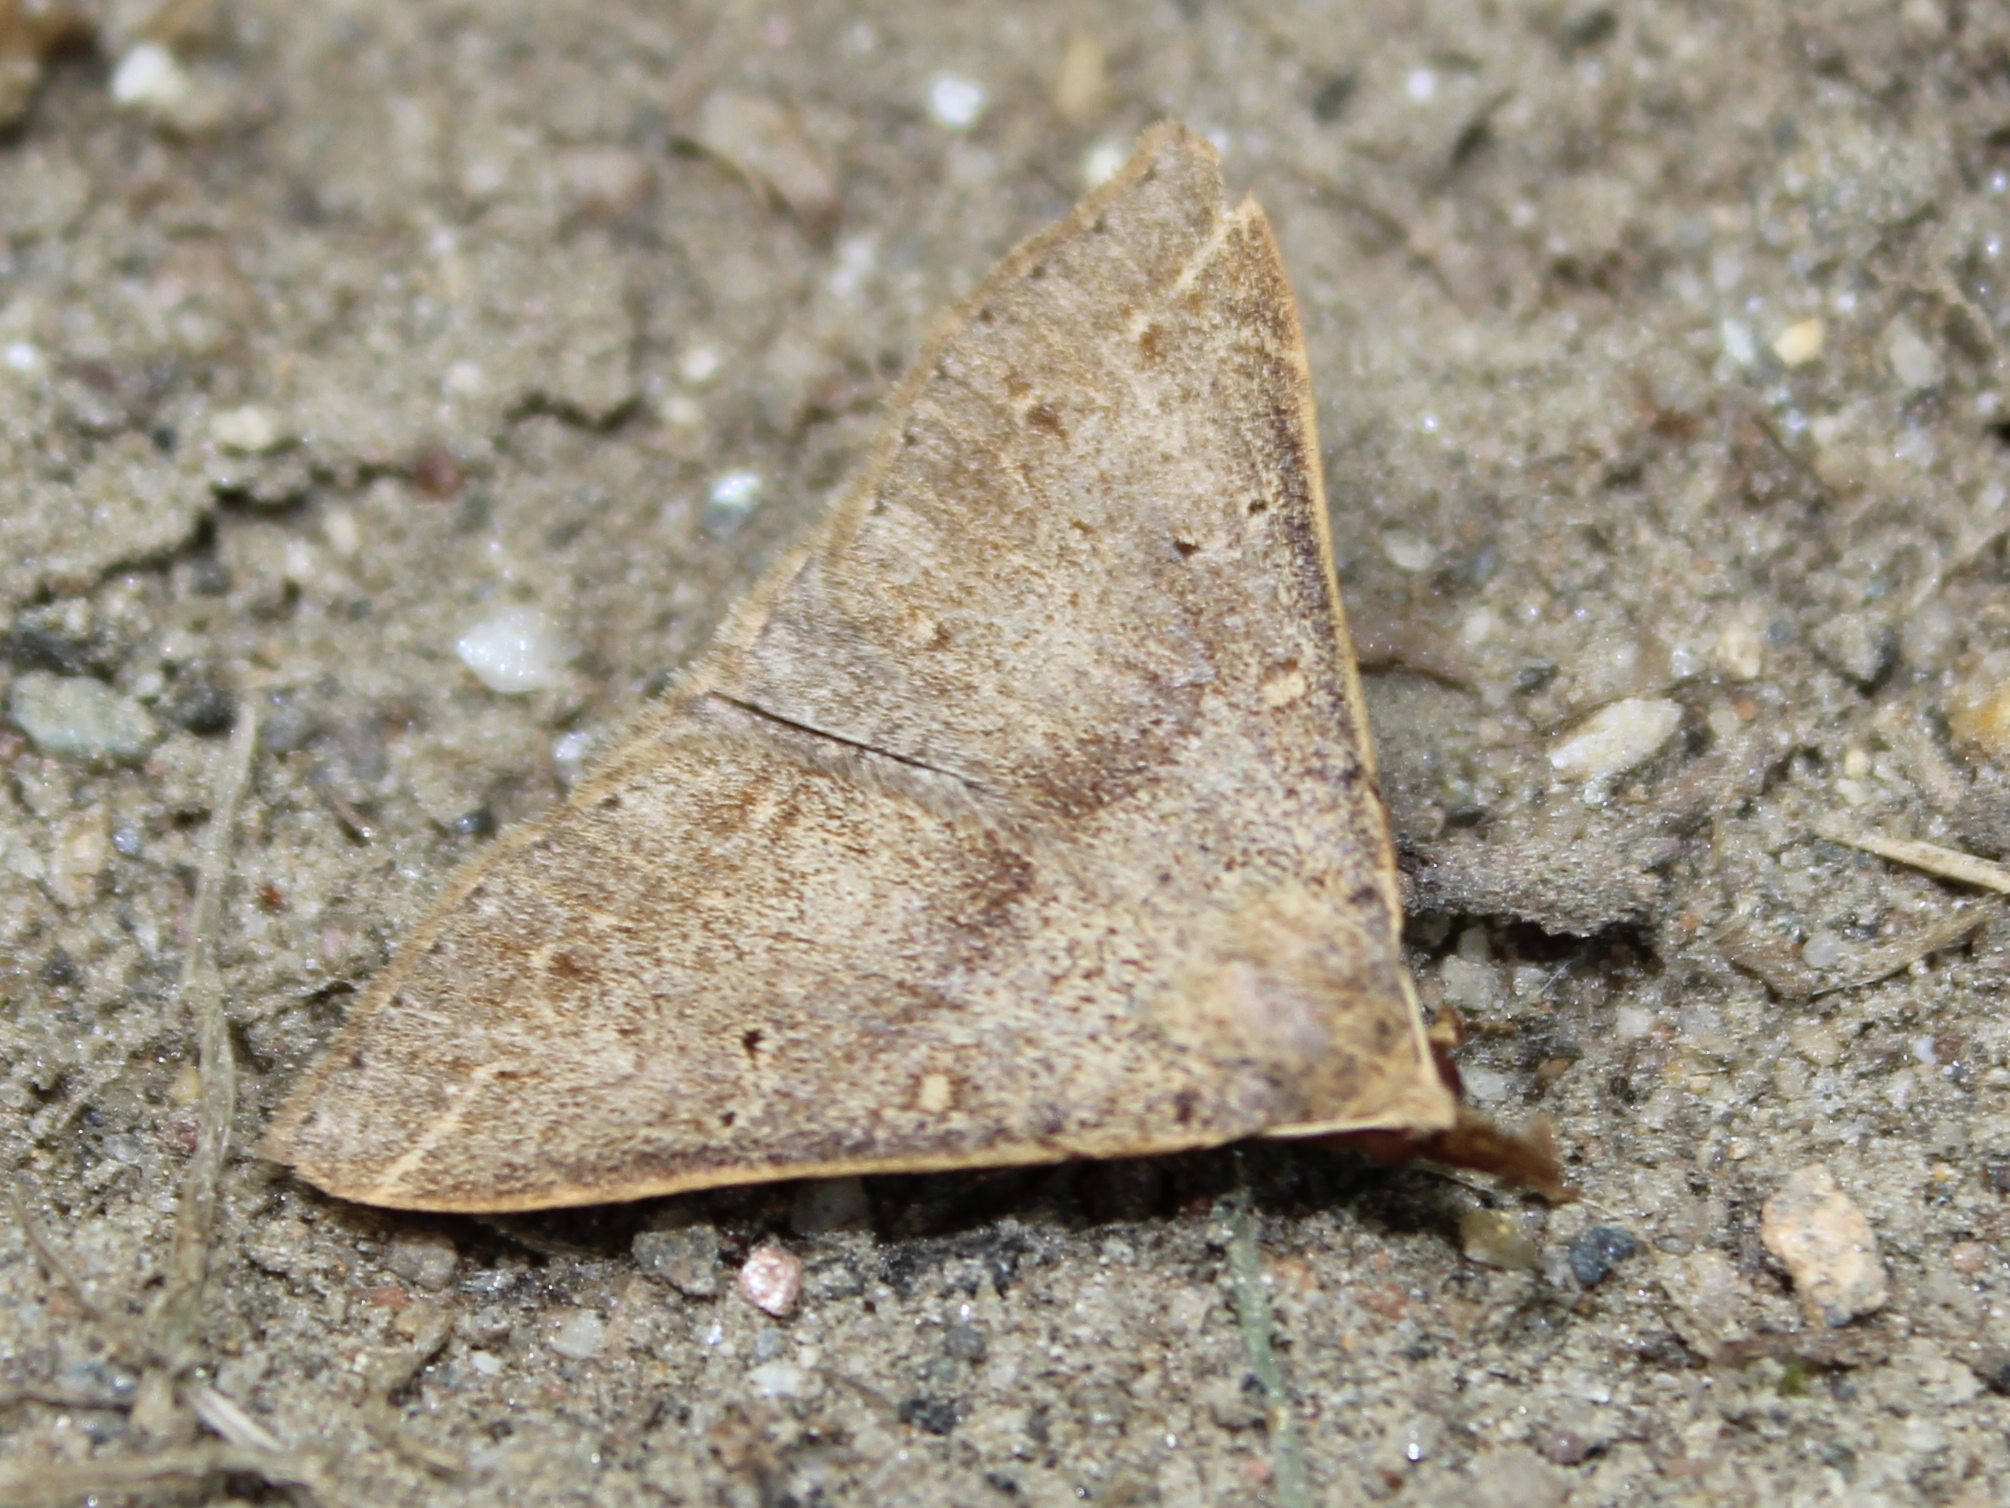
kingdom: Animalia
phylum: Arthropoda
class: Insecta
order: Lepidoptera
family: Erebidae
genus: Renia
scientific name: Renia flavipunctalis
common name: Yellow-spotted renia moth
